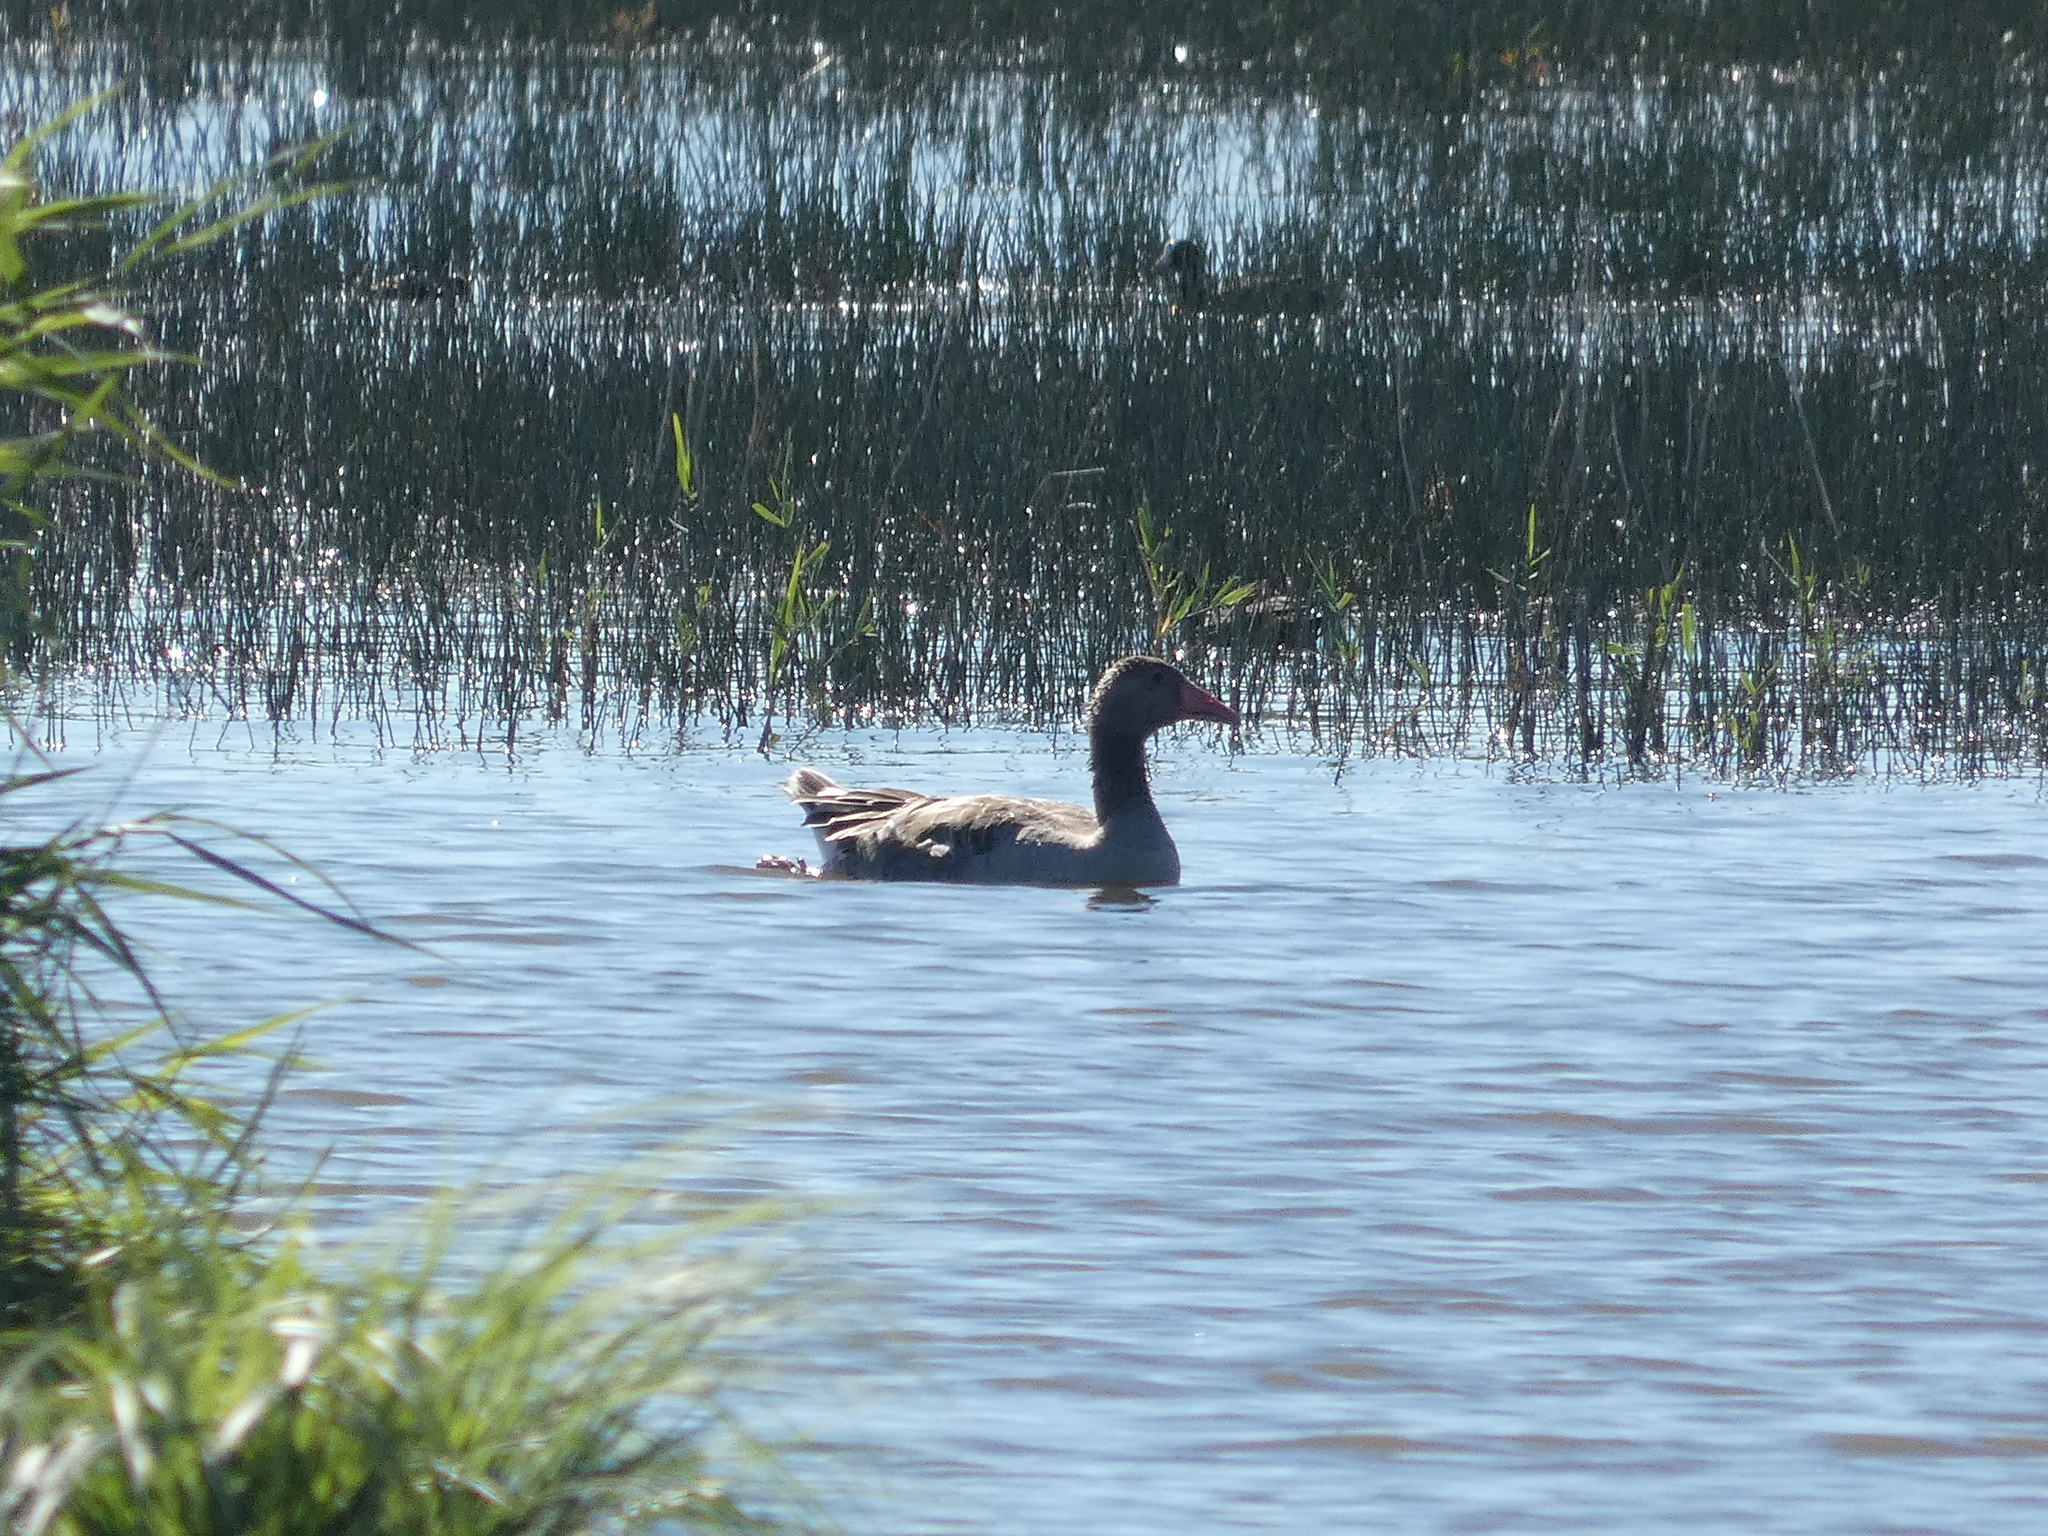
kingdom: Animalia
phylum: Chordata
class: Aves
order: Anseriformes
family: Anatidae
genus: Anser
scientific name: Anser anser
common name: Greylag goose
